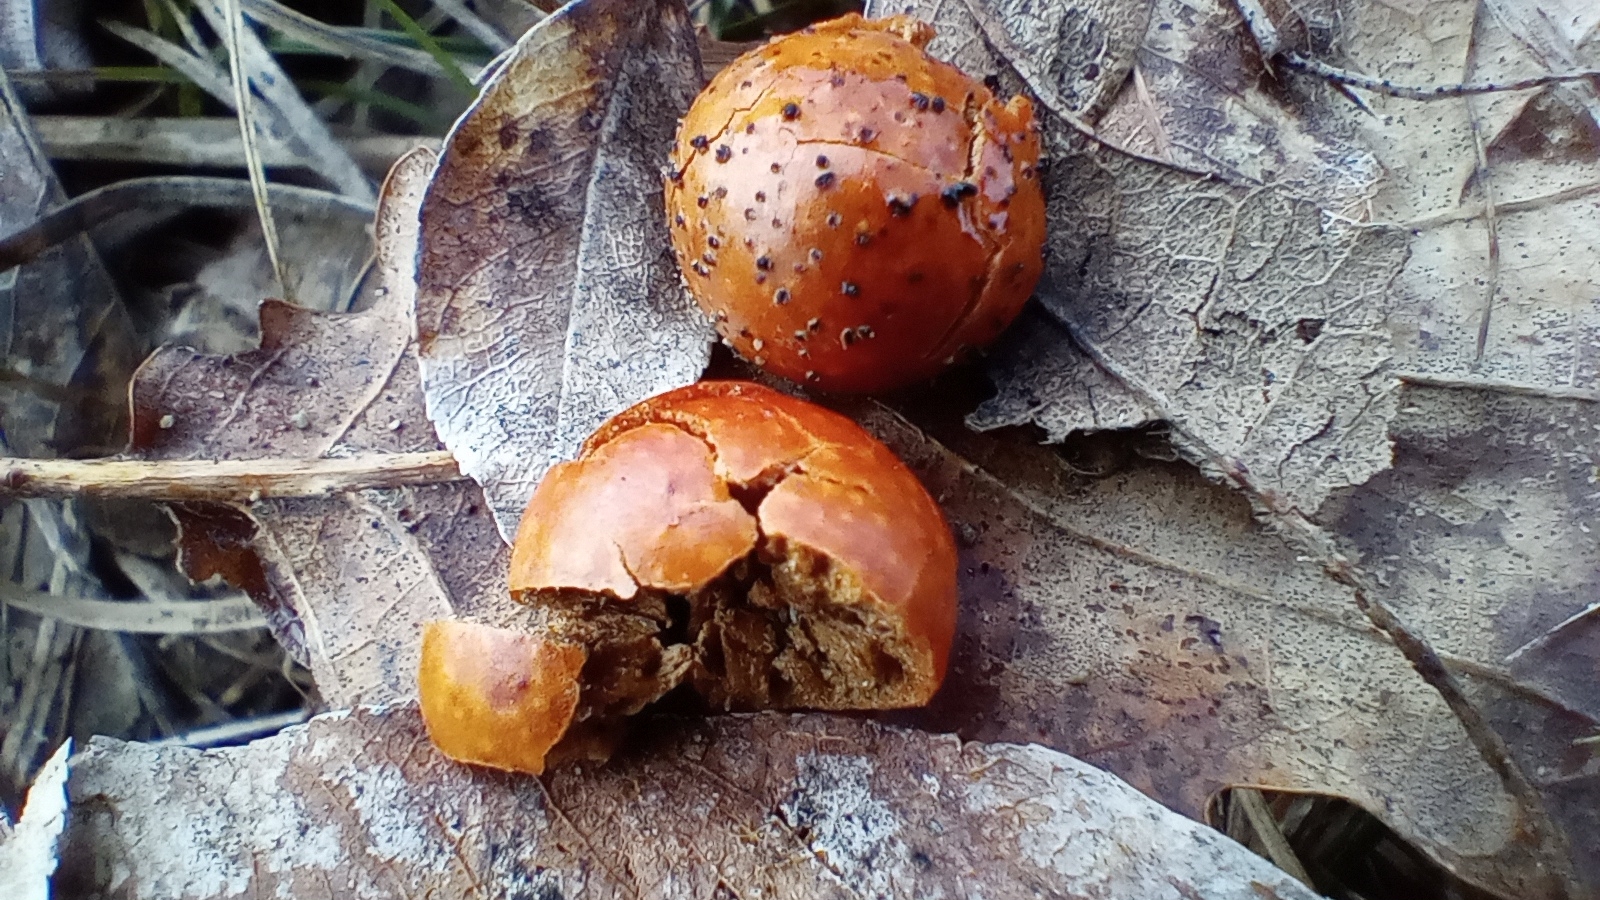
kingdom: Animalia
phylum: Arthropoda
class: Insecta
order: Hymenoptera
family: Cynipidae
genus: Cynips
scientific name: Cynips quercusfolii
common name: Cherry gall
